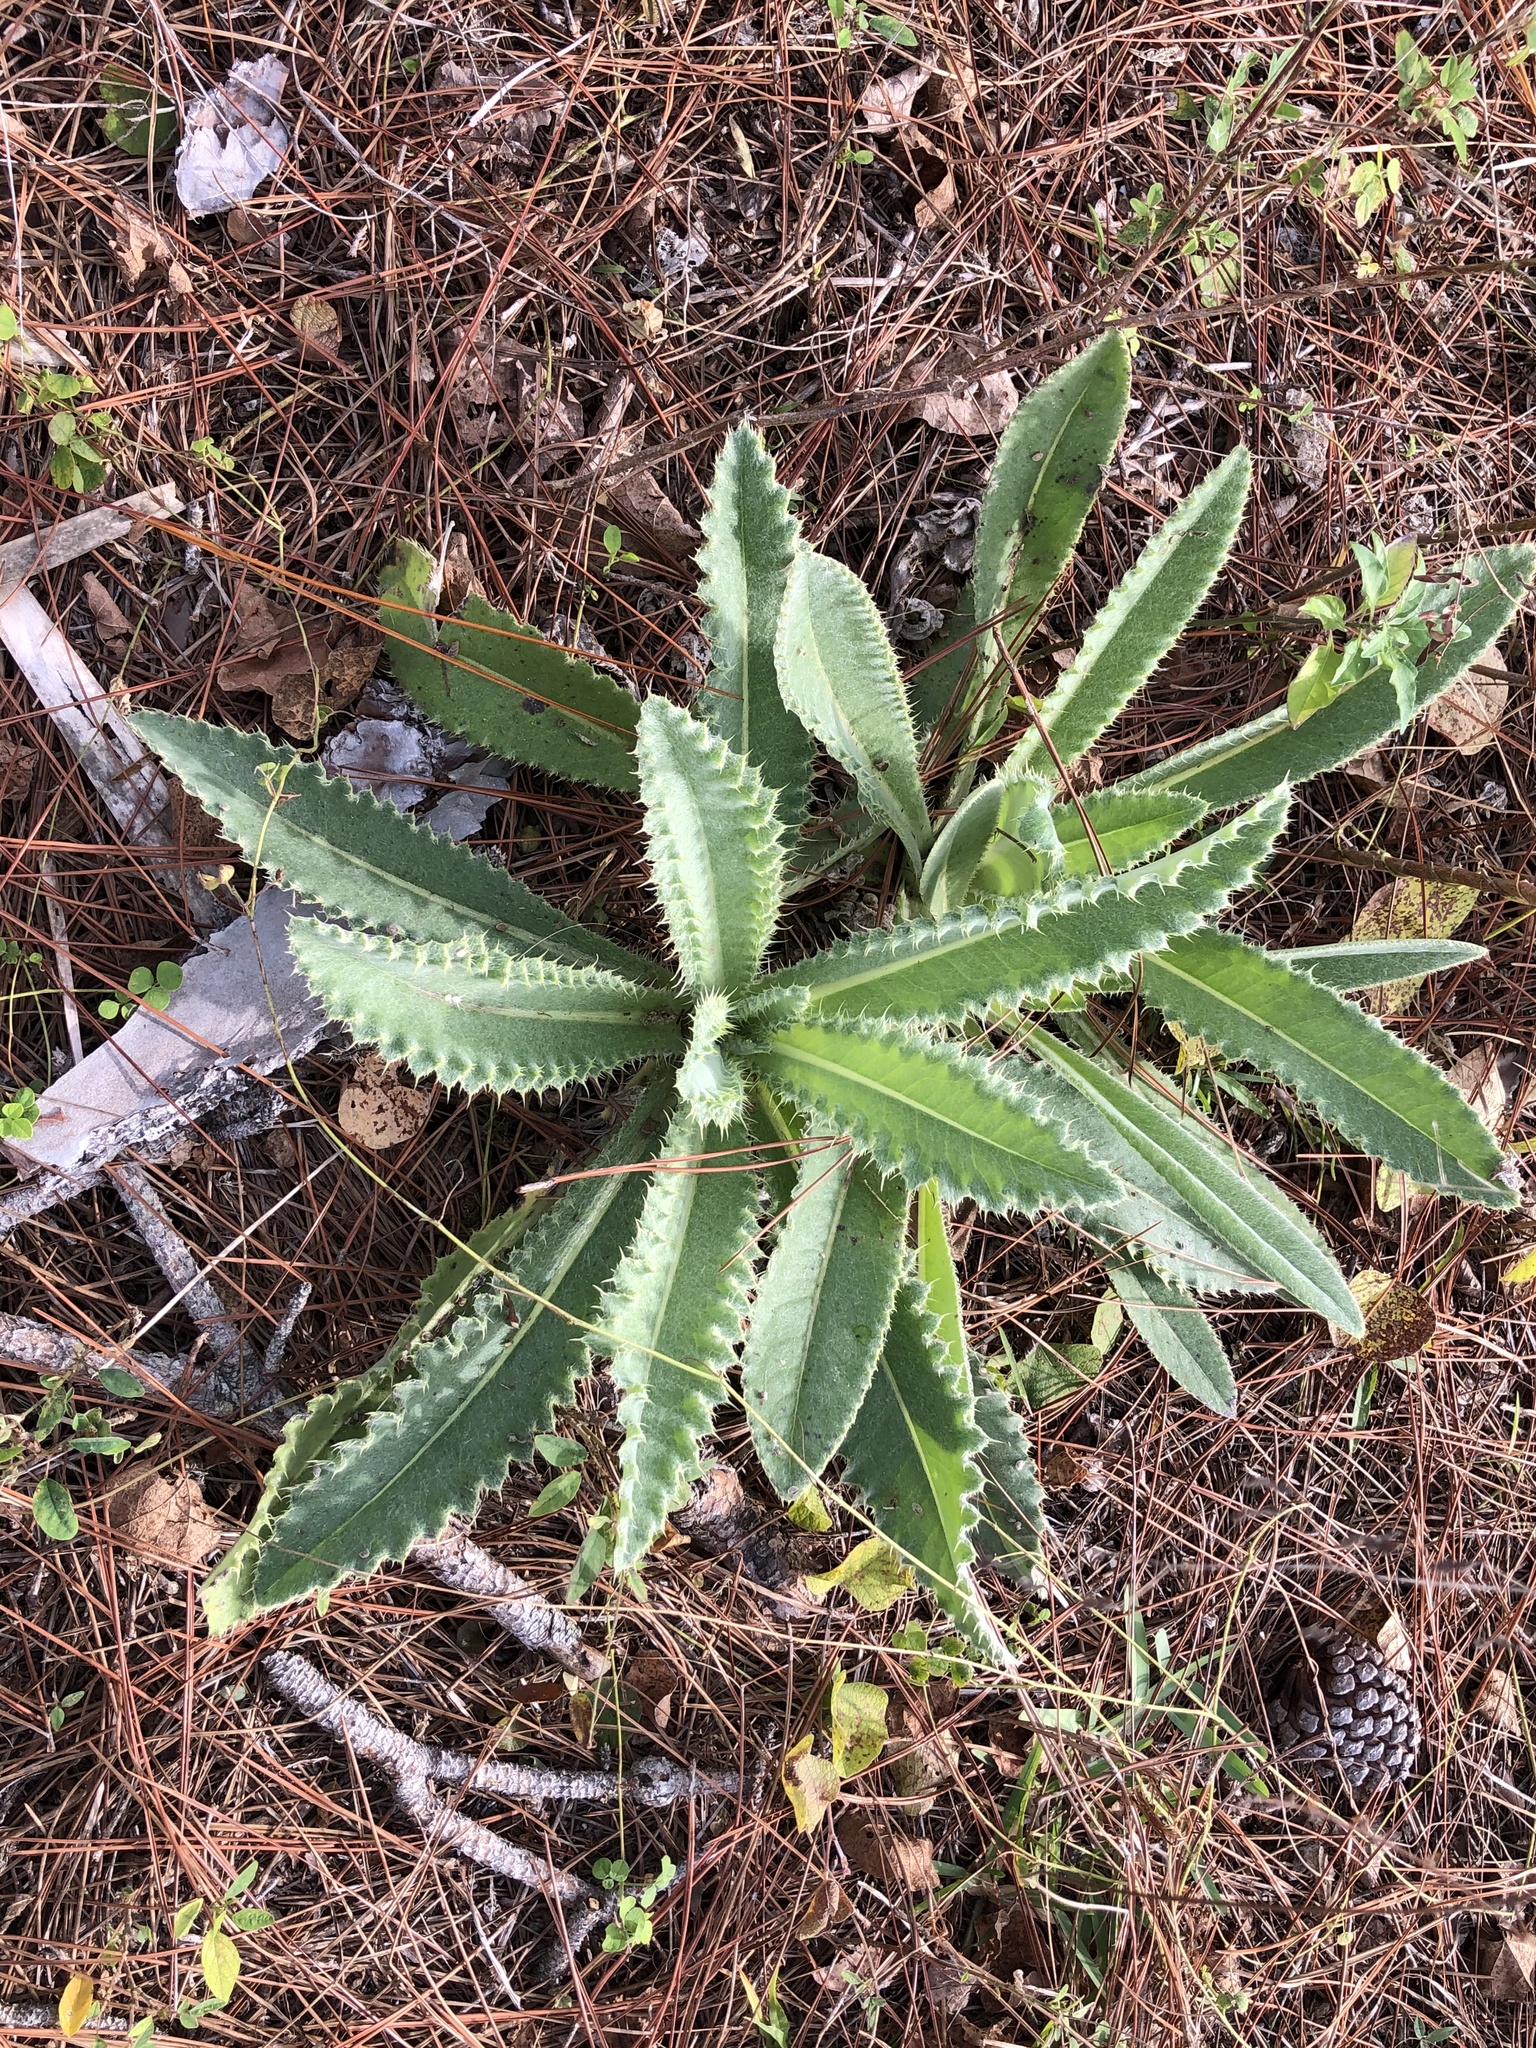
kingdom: Plantae
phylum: Tracheophyta
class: Magnoliopsida
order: Asterales
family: Asteraceae
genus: Cirsium
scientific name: Cirsium horridulum
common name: Bristly thistle
